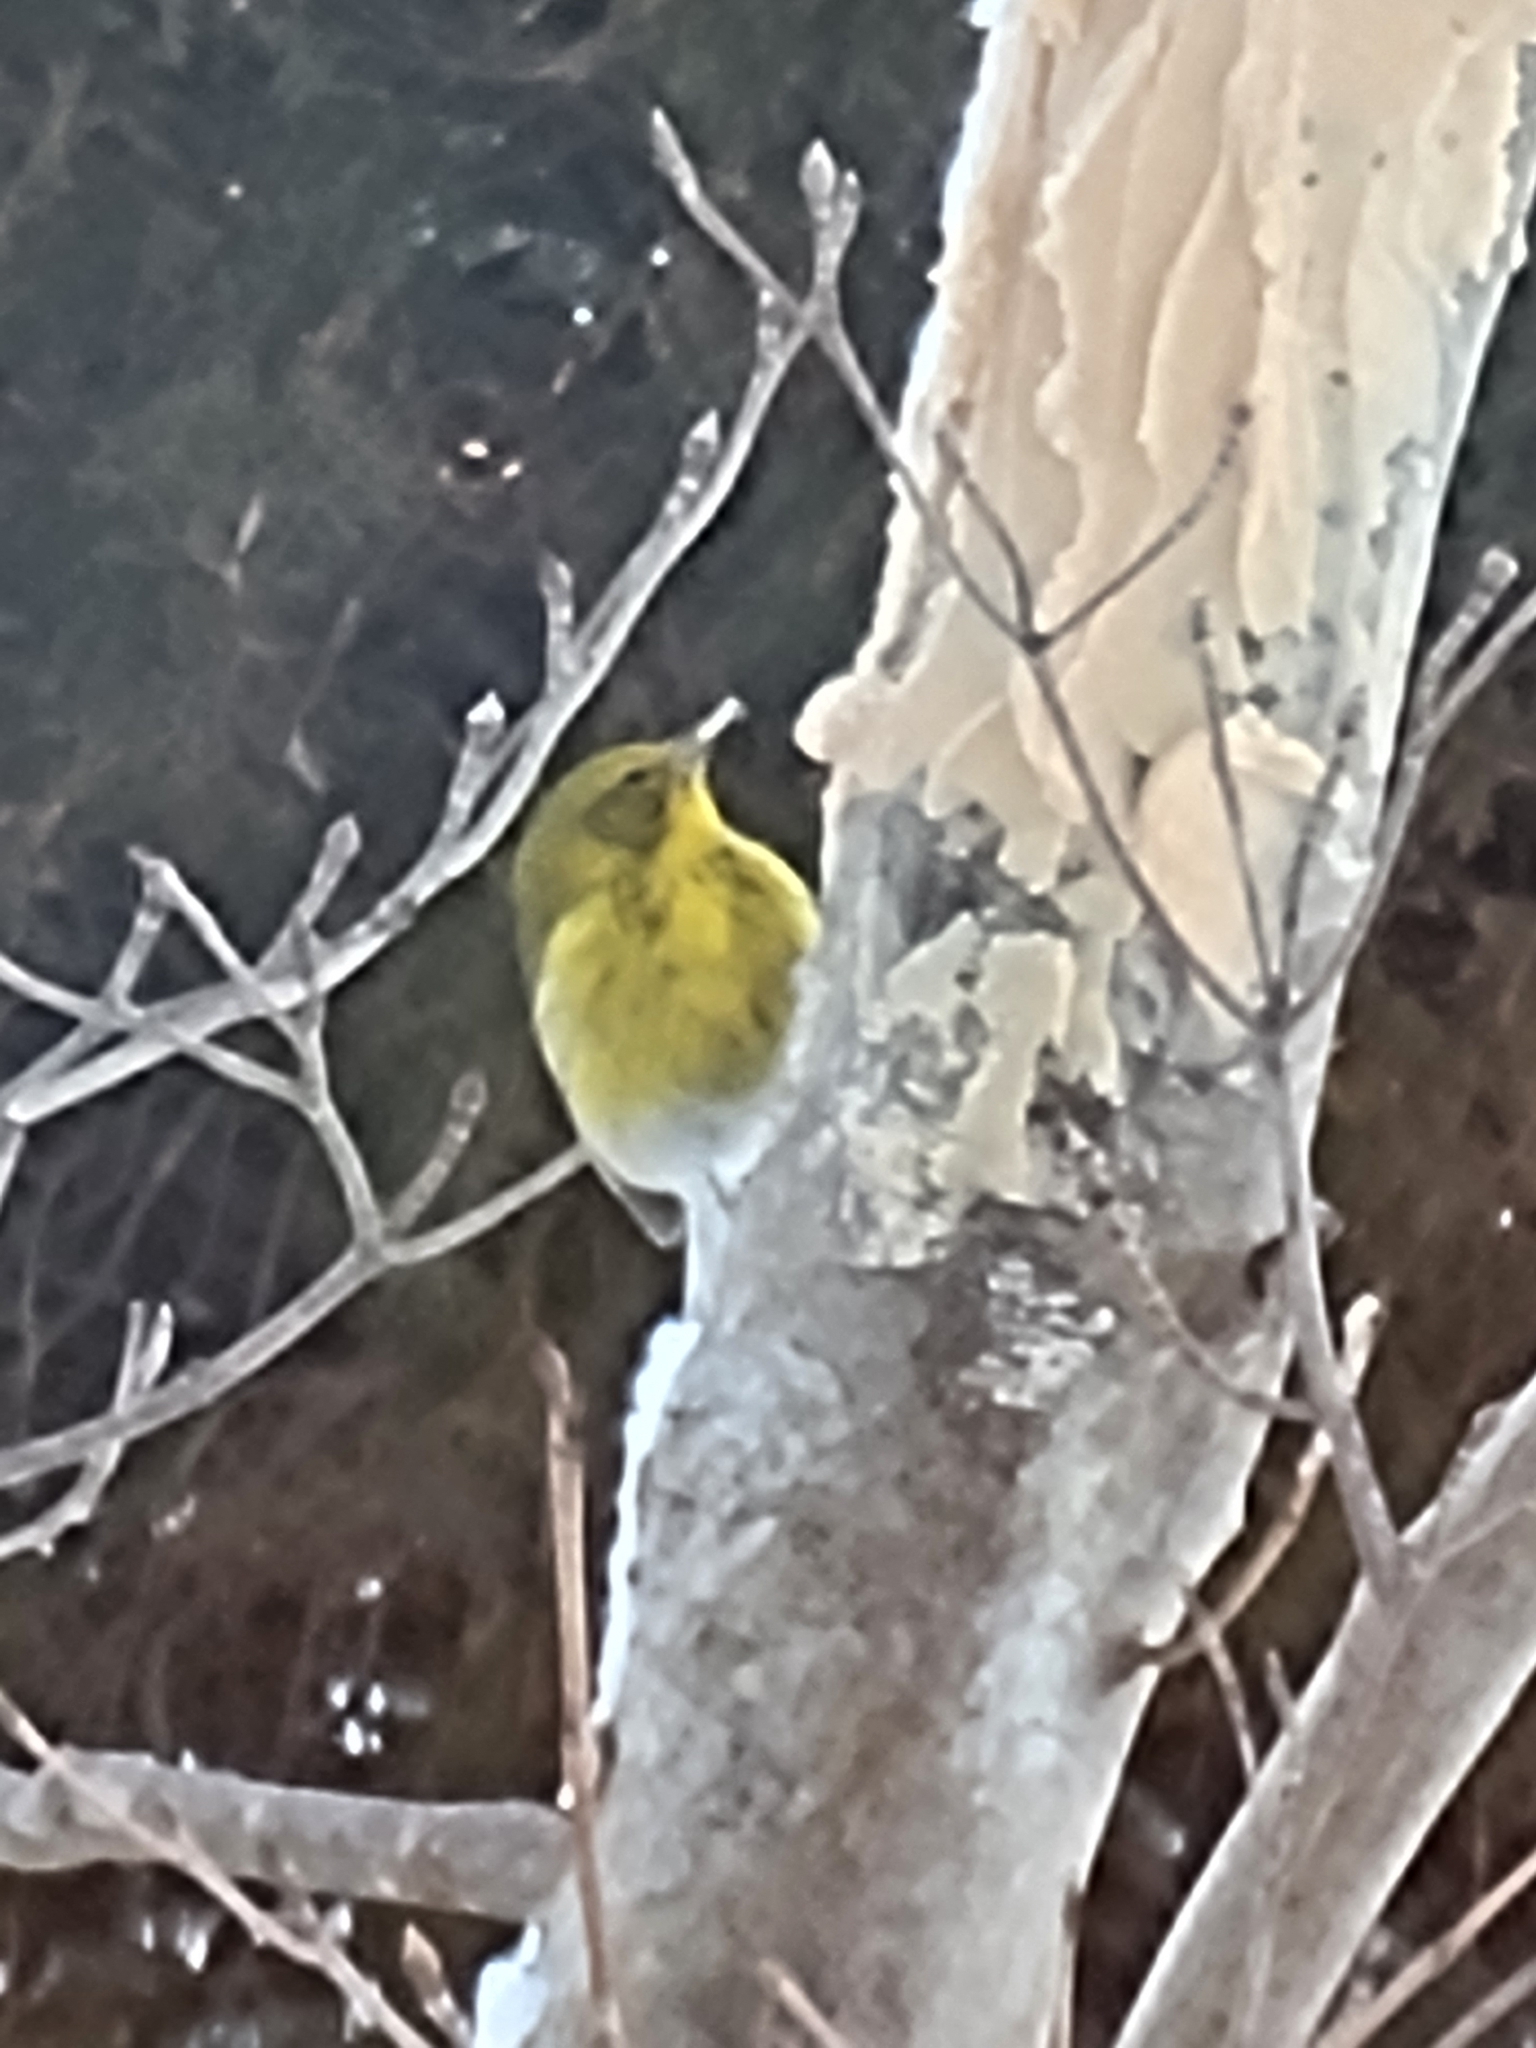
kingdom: Animalia
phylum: Chordata
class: Aves
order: Passeriformes
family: Parulidae
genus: Setophaga
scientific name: Setophaga pinus
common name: Pine warbler
